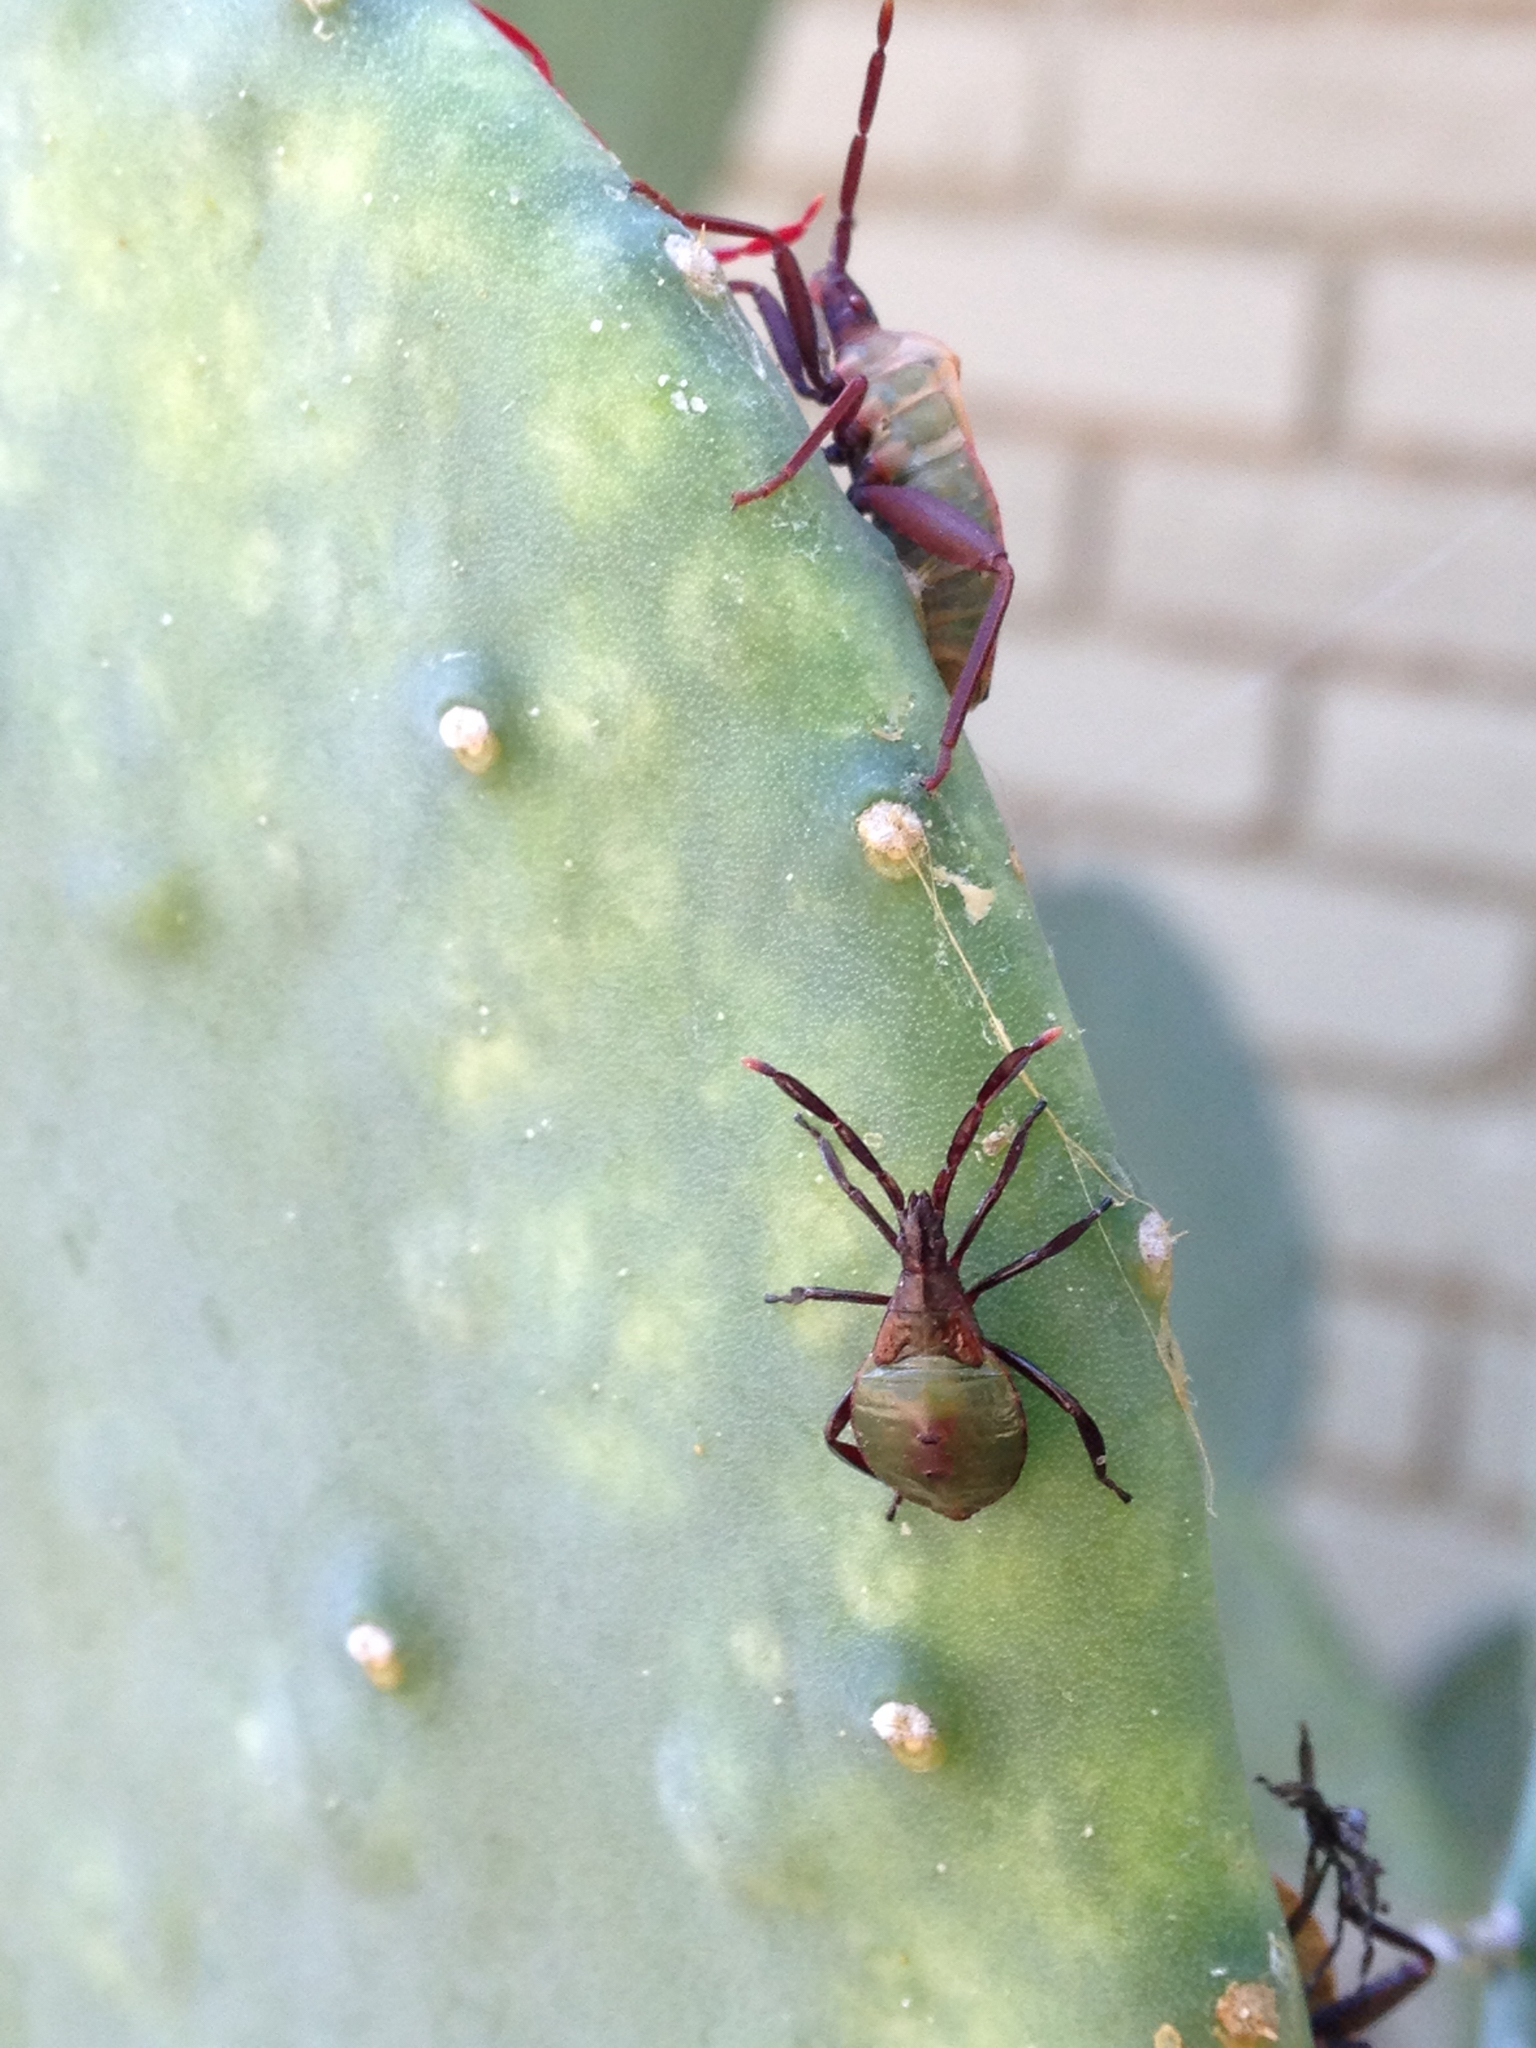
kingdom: Animalia
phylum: Arthropoda
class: Insecta
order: Hemiptera
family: Coreidae
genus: Chelinidea
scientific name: Chelinidea vittiger
